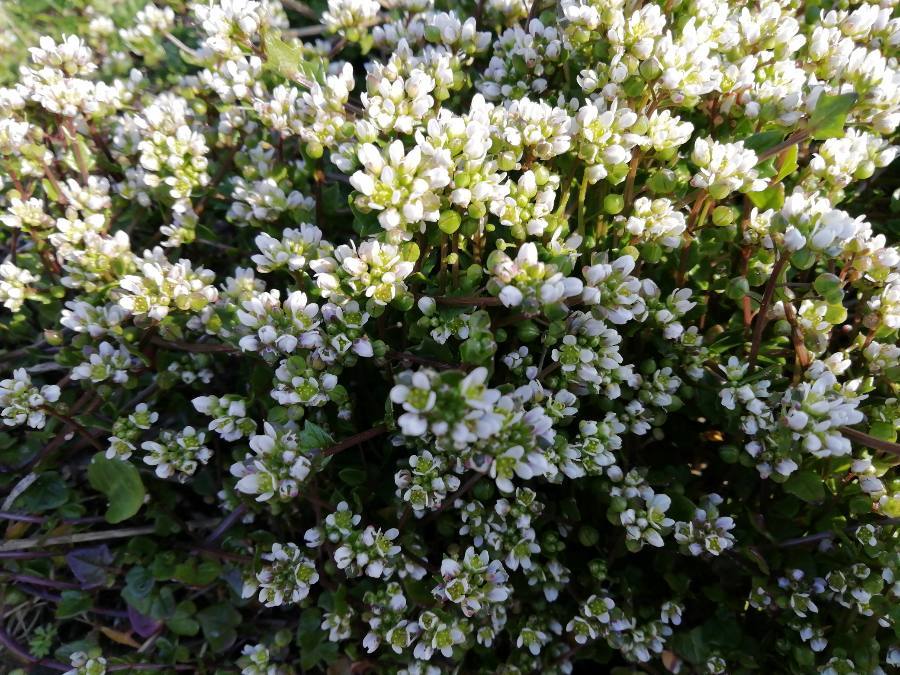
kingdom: Plantae
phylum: Tracheophyta
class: Magnoliopsida
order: Brassicales
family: Brassicaceae
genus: Cochlearia
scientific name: Cochlearia danica
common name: Early scurvygrass
